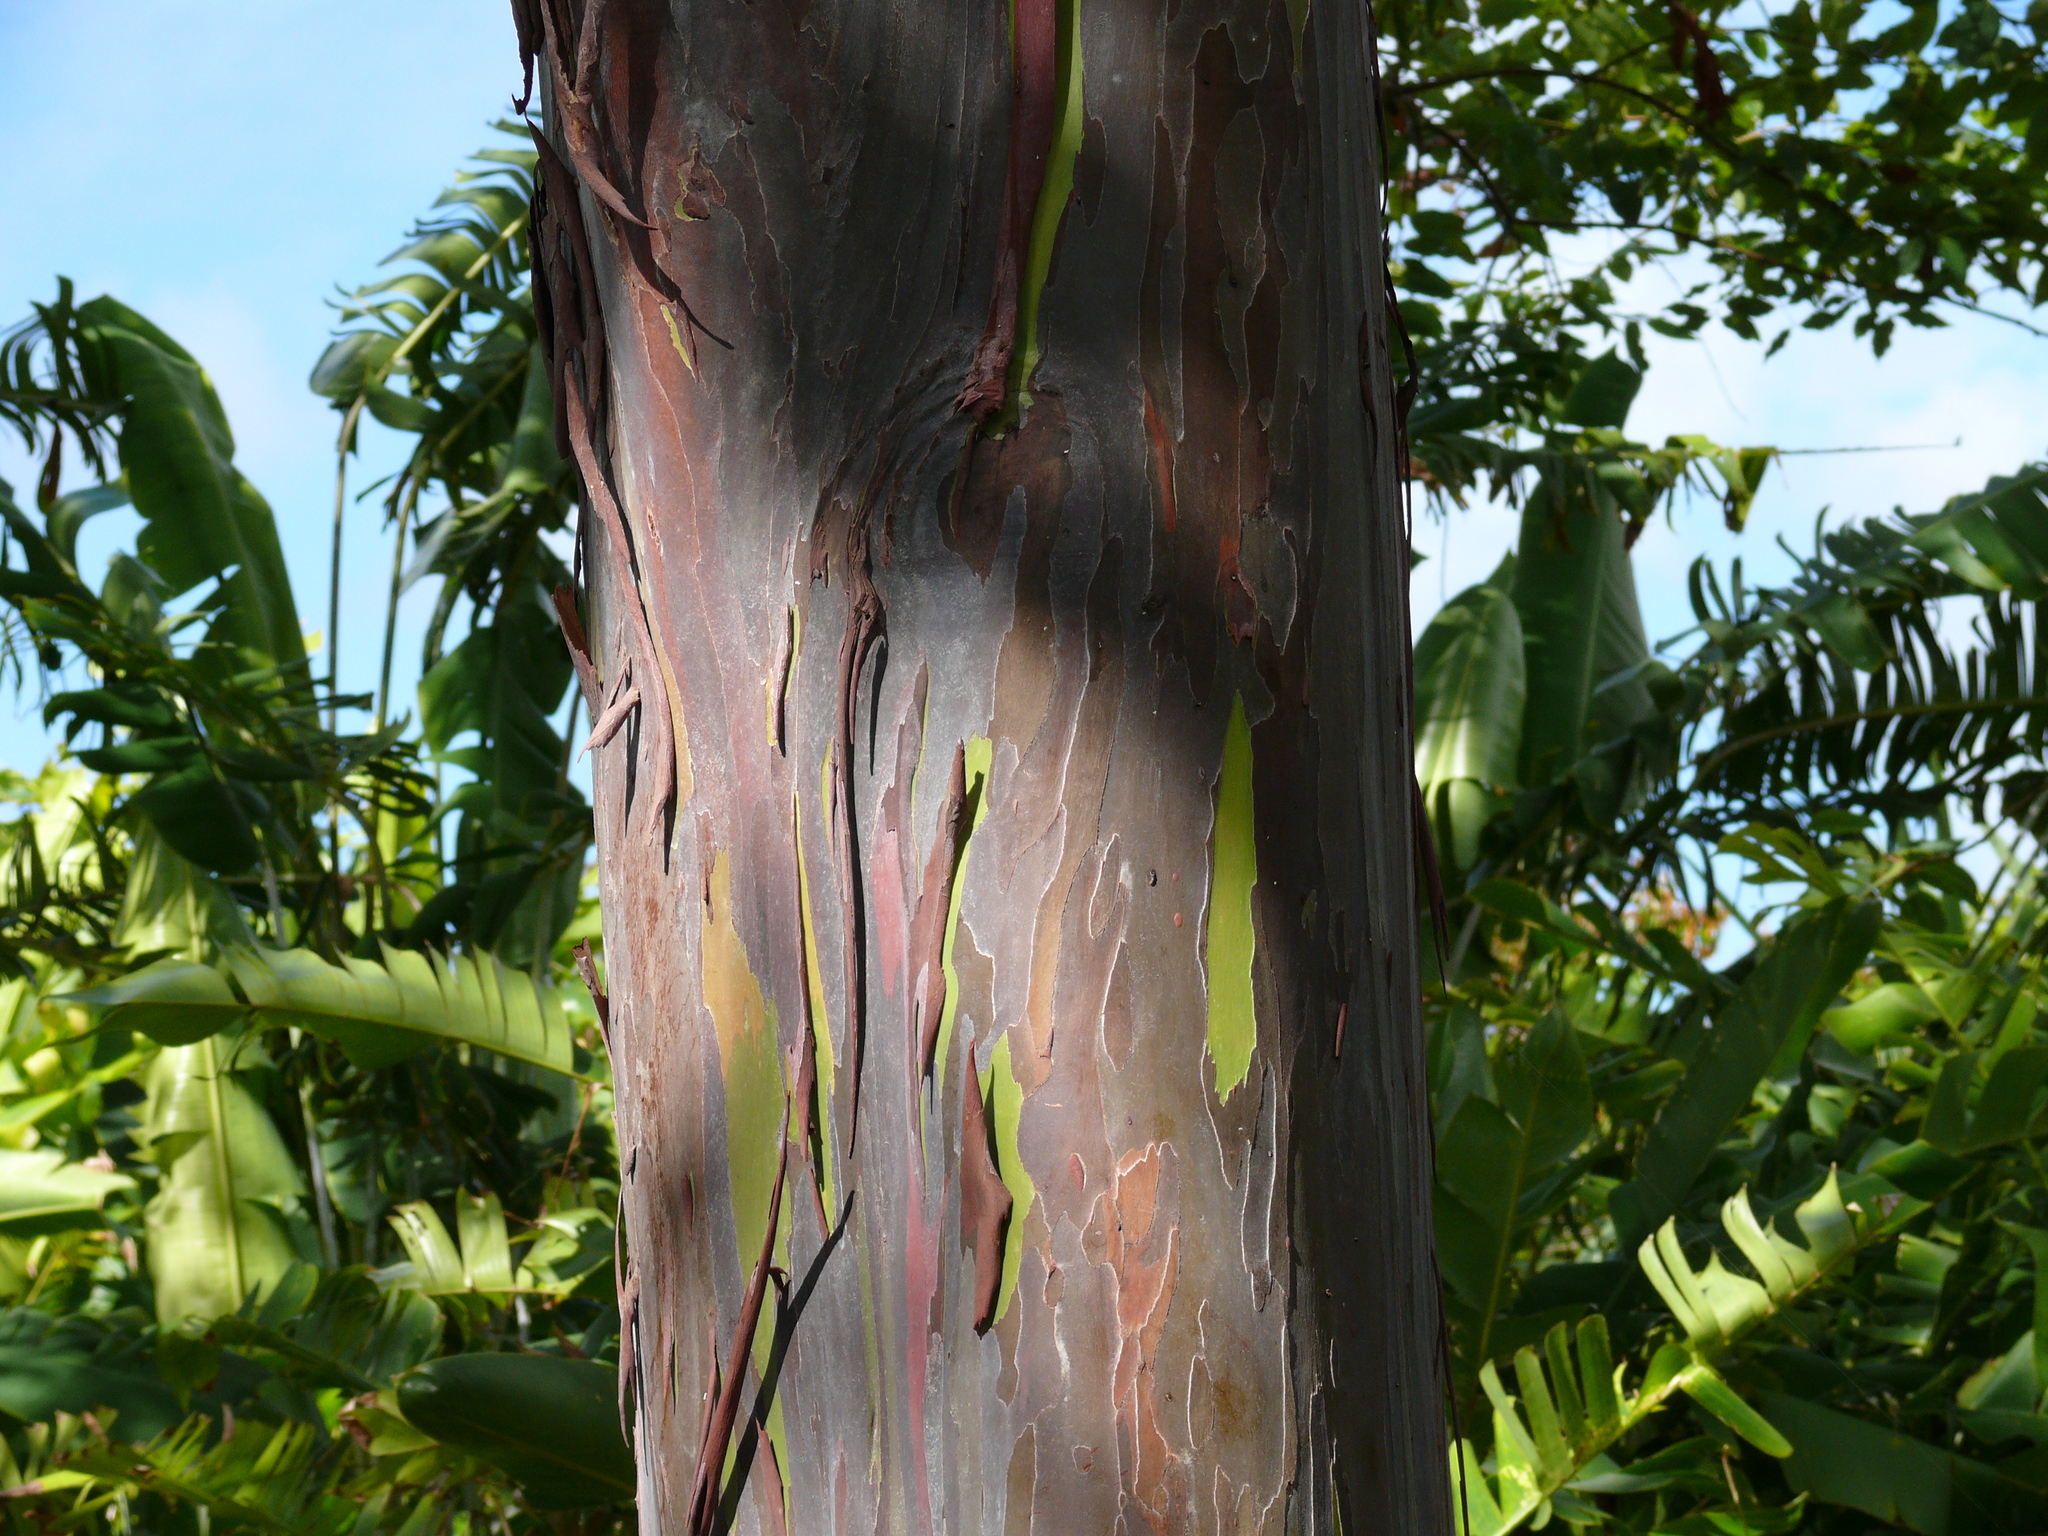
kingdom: Plantae
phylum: Tracheophyta
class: Magnoliopsida
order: Myrtales
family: Myrtaceae
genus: Eucalyptus
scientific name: Eucalyptus deglupta
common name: Mindanao gum
